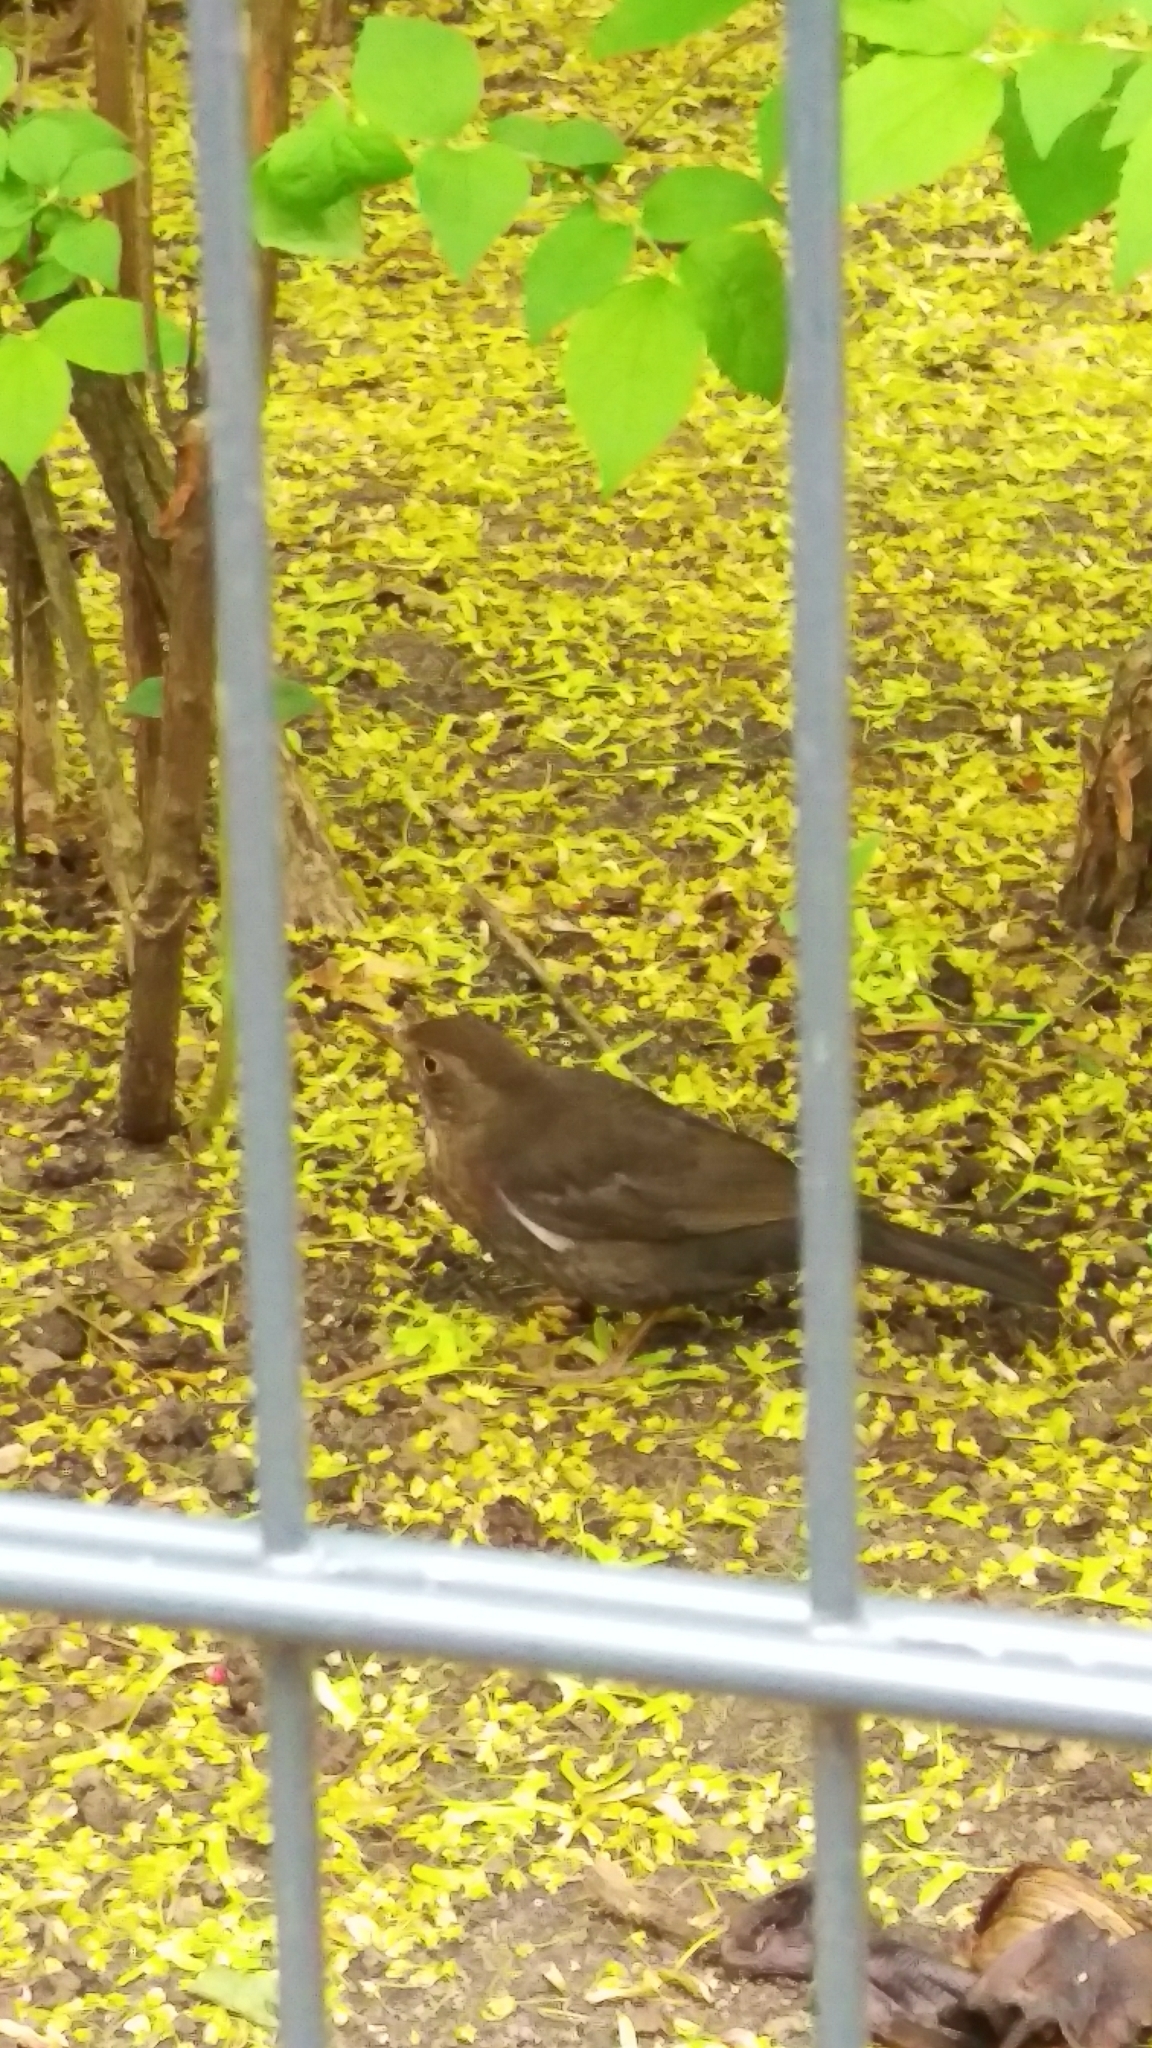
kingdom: Animalia
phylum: Chordata
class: Aves
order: Passeriformes
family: Turdidae
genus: Turdus
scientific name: Turdus merula
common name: Common blackbird
